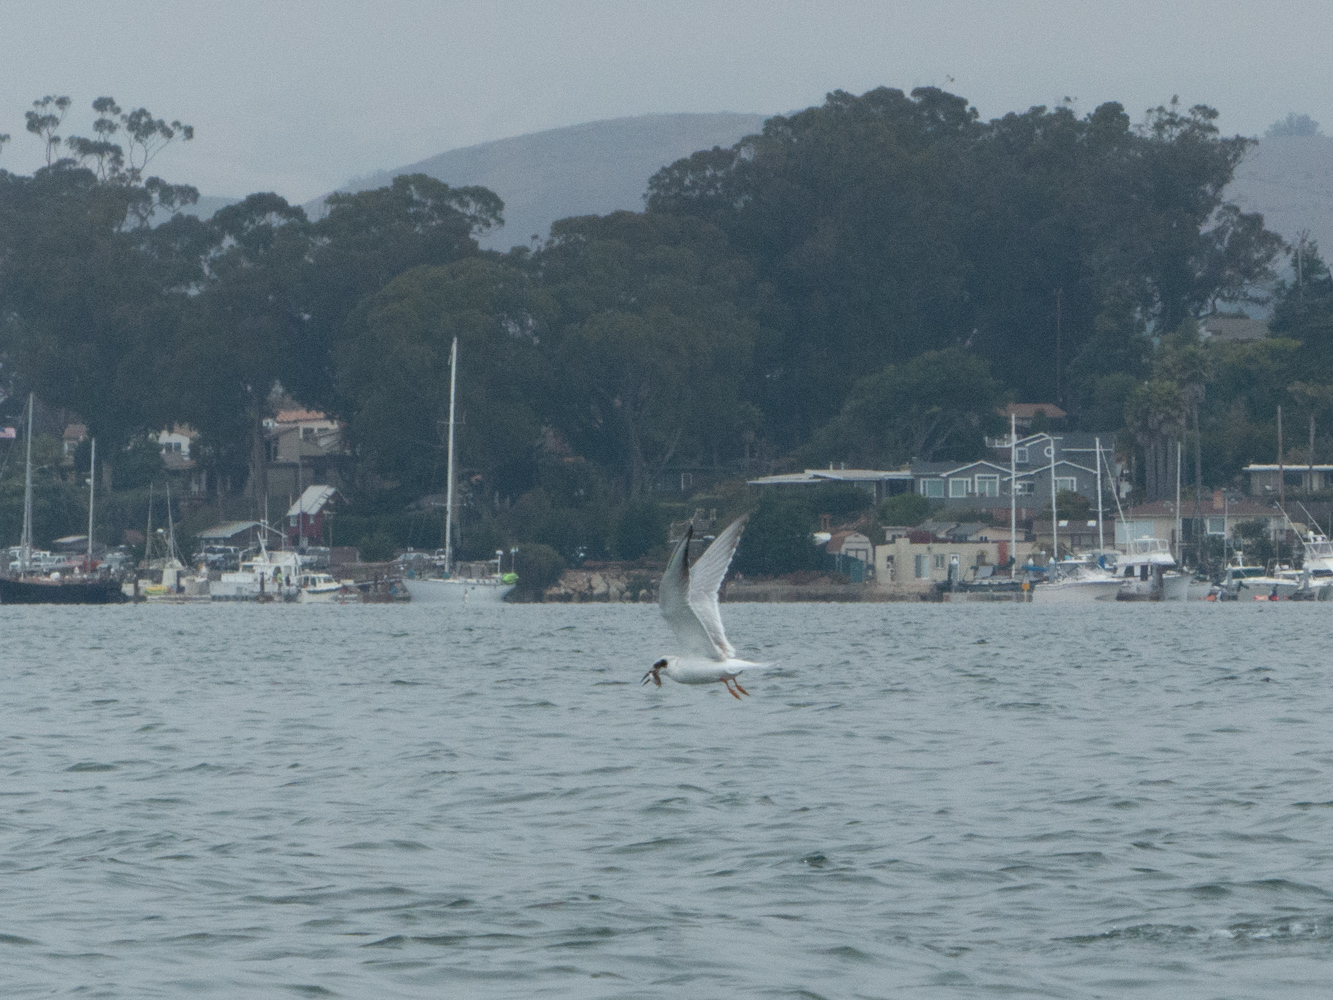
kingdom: Animalia
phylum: Chordata
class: Aves
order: Charadriiformes
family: Laridae
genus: Sterna
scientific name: Sterna forsteri
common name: Forster's tern
